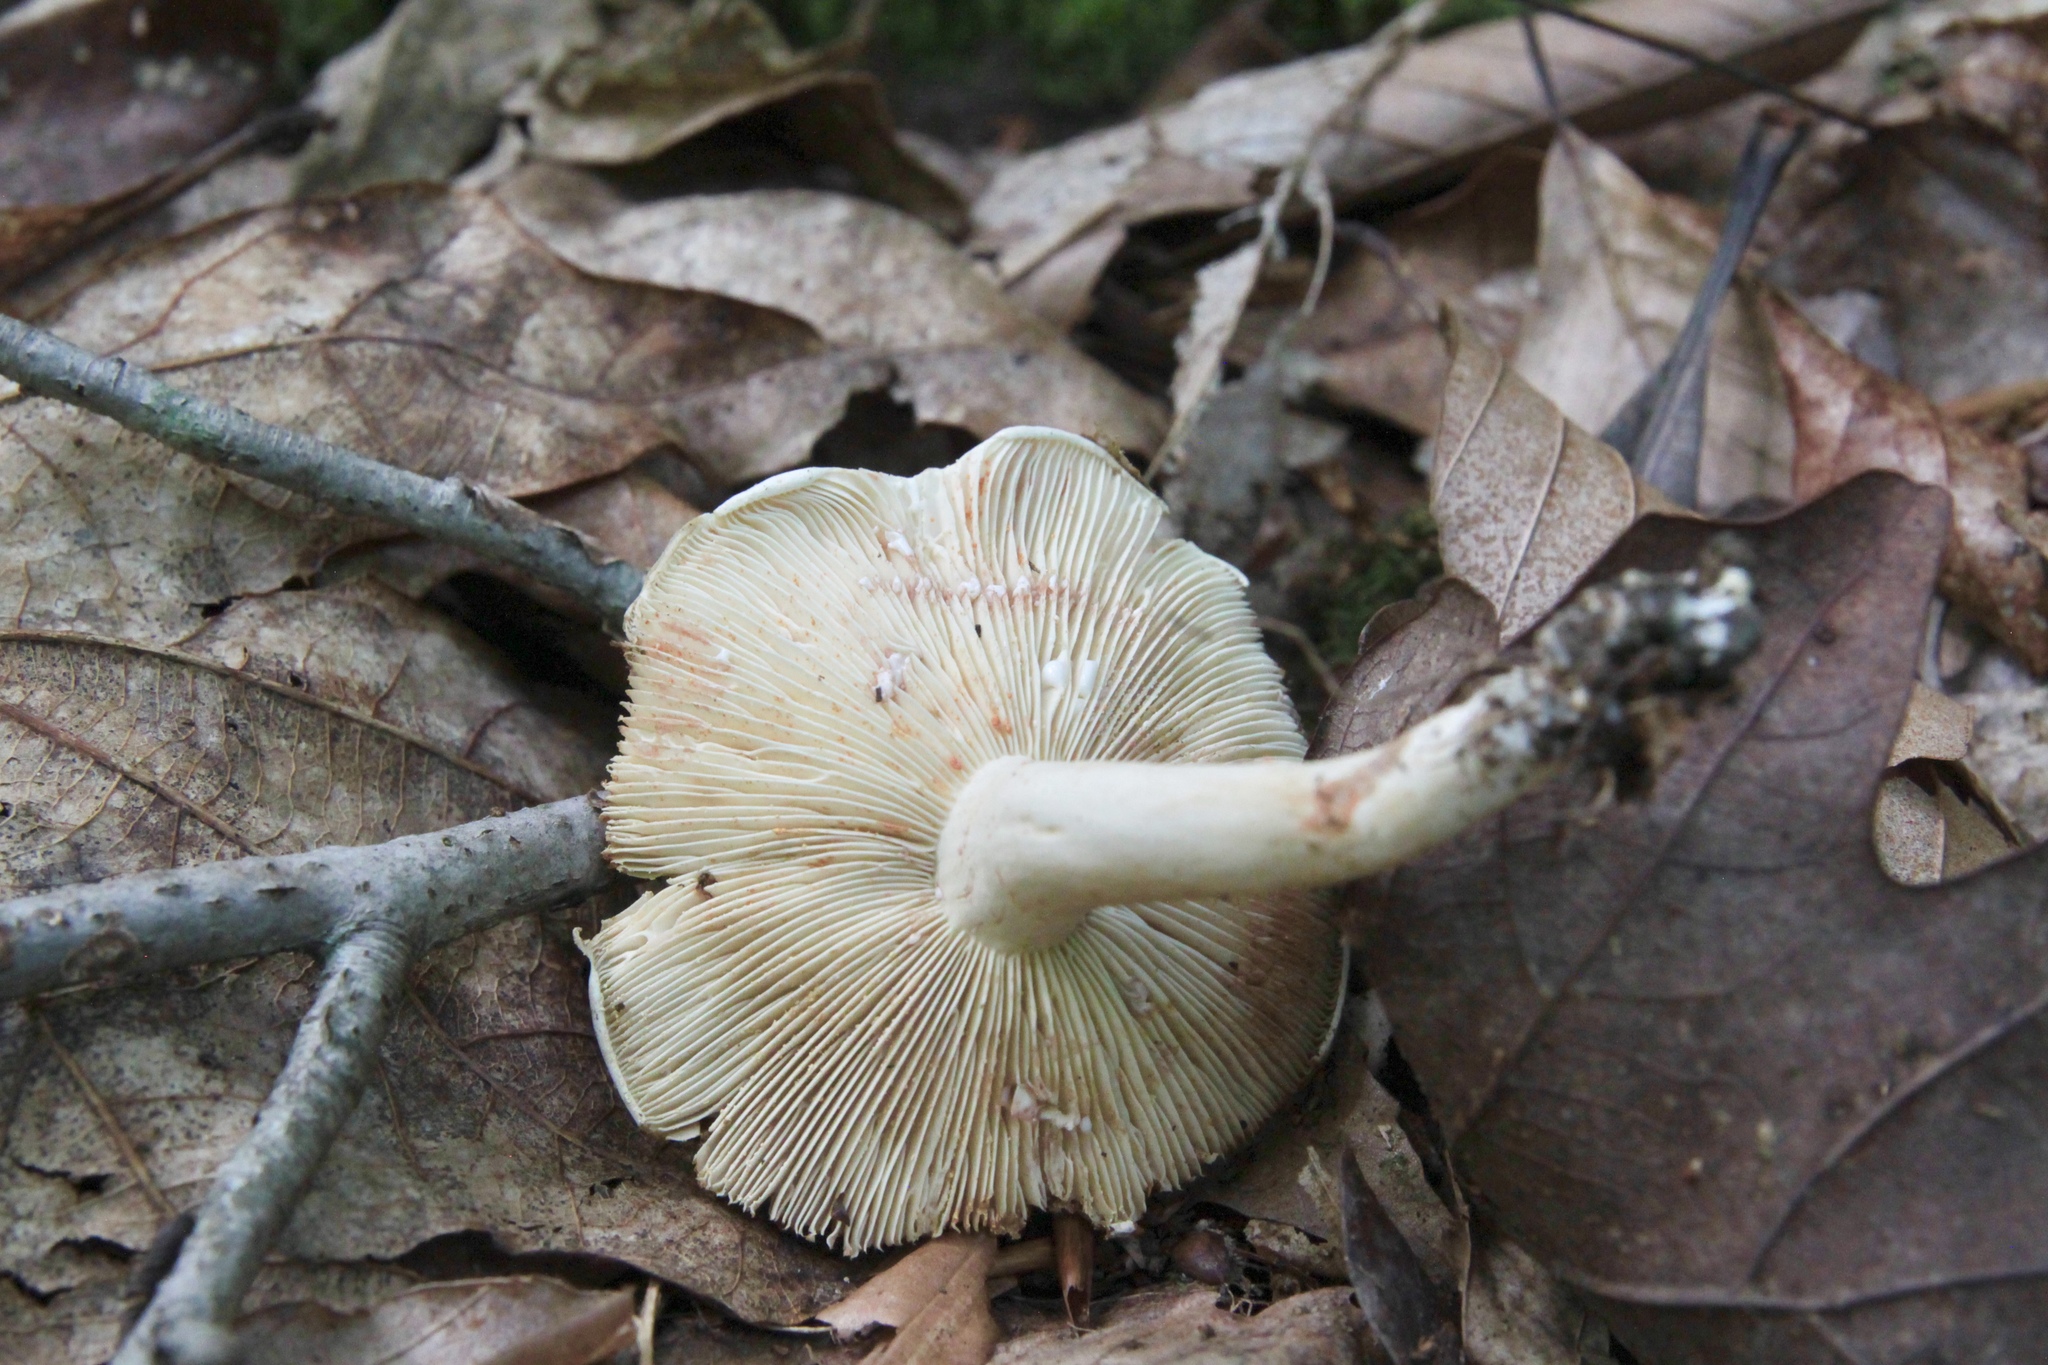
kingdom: Fungi
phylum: Basidiomycota
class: Agaricomycetes
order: Russulales
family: Russulaceae
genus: Lactarius
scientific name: Lactarius subvernalis
